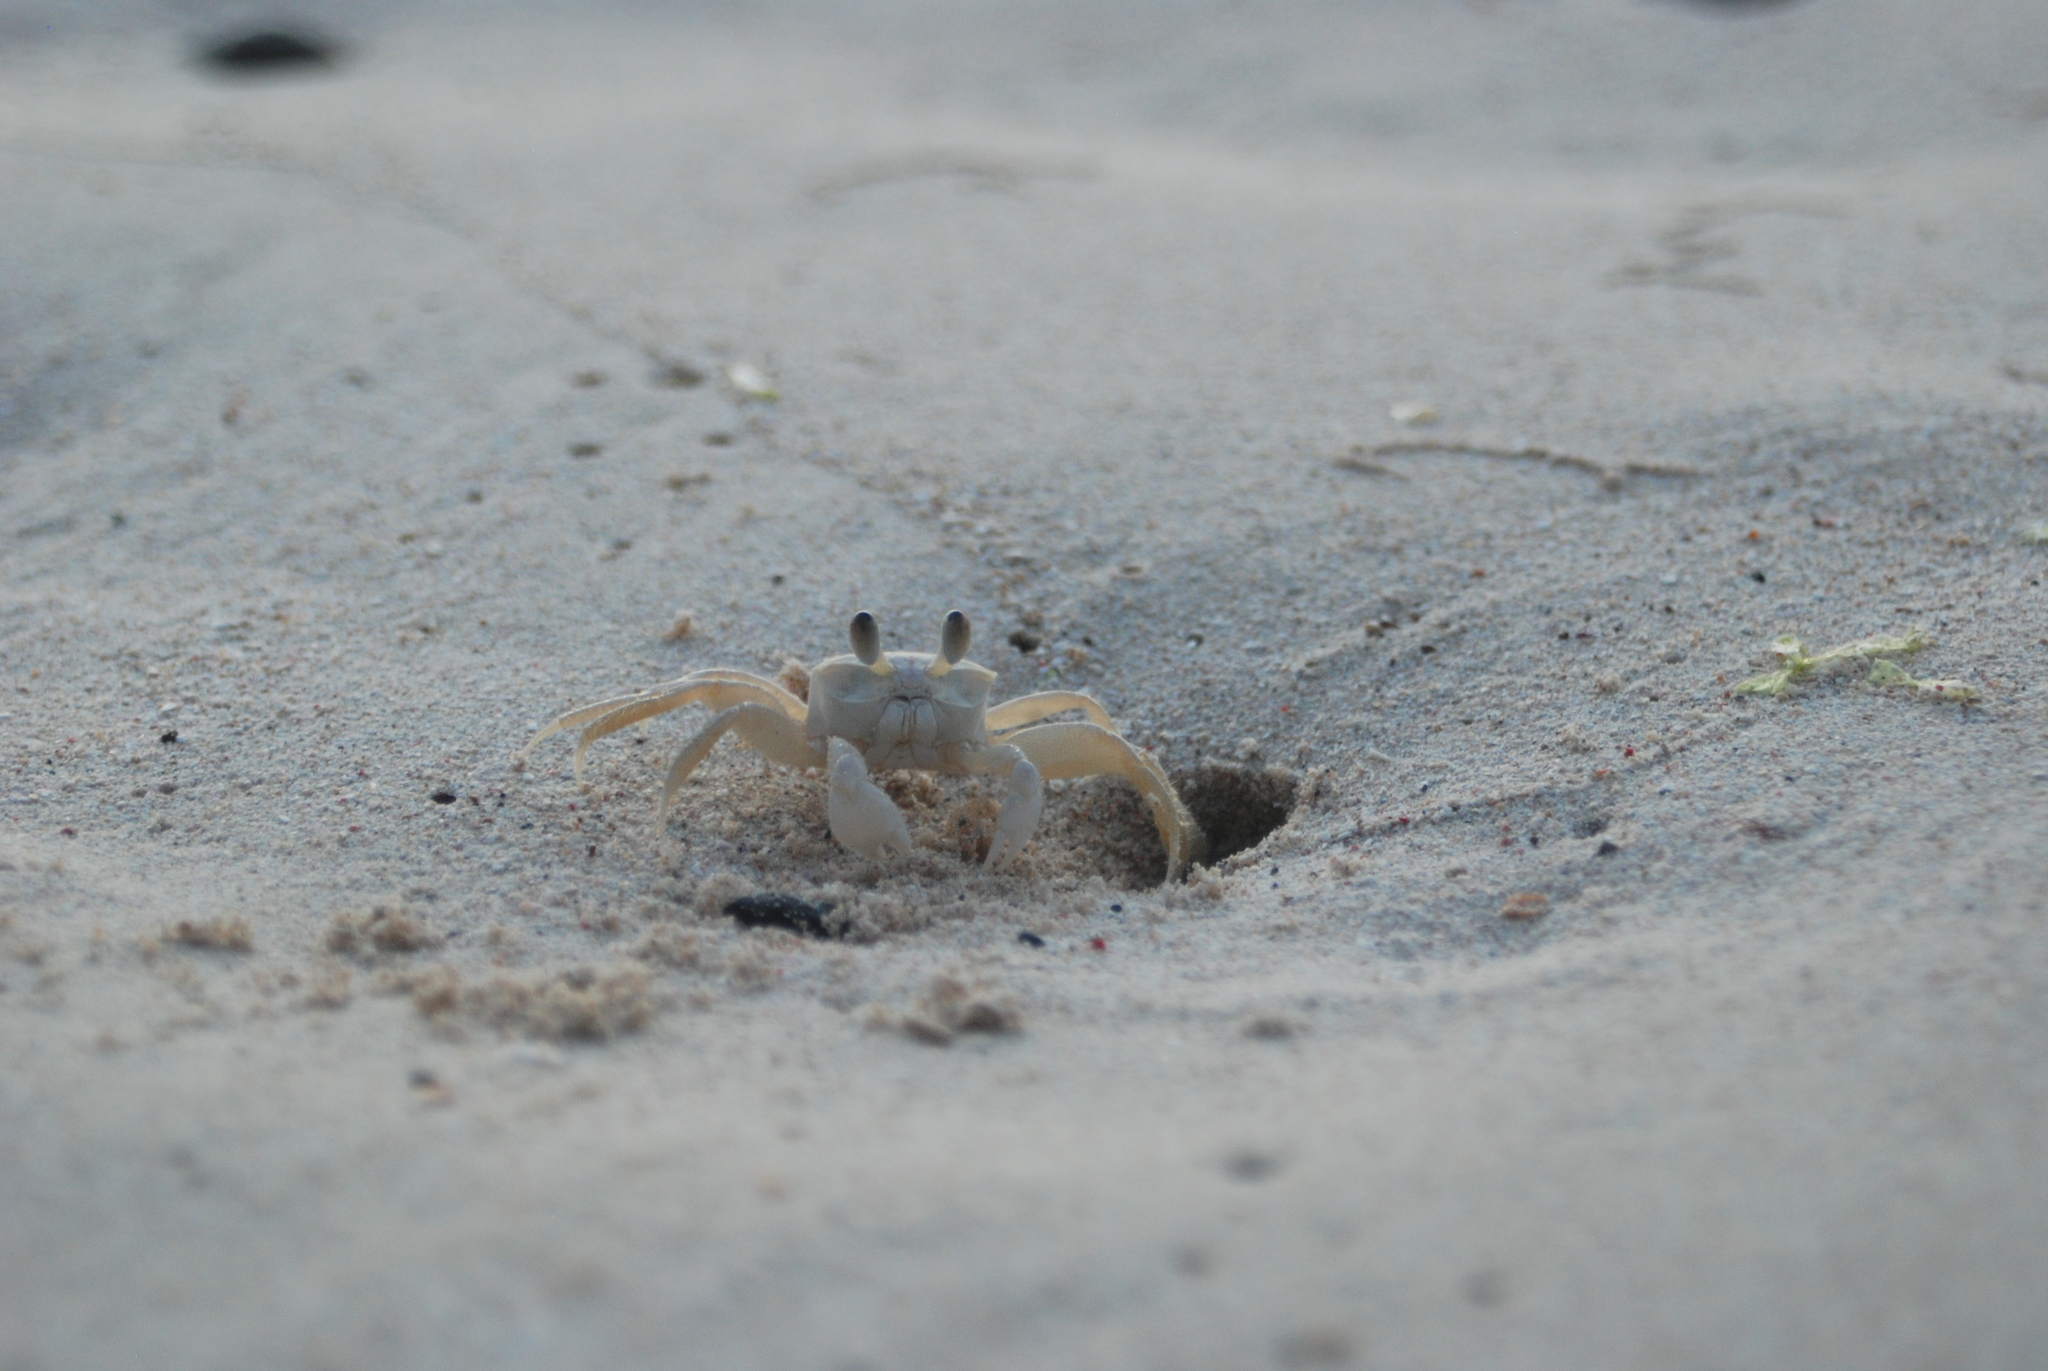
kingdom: Animalia
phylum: Arthropoda
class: Malacostraca
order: Decapoda
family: Ocypodidae
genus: Ocypode
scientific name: Ocypode quadrata
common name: Ghost crab
